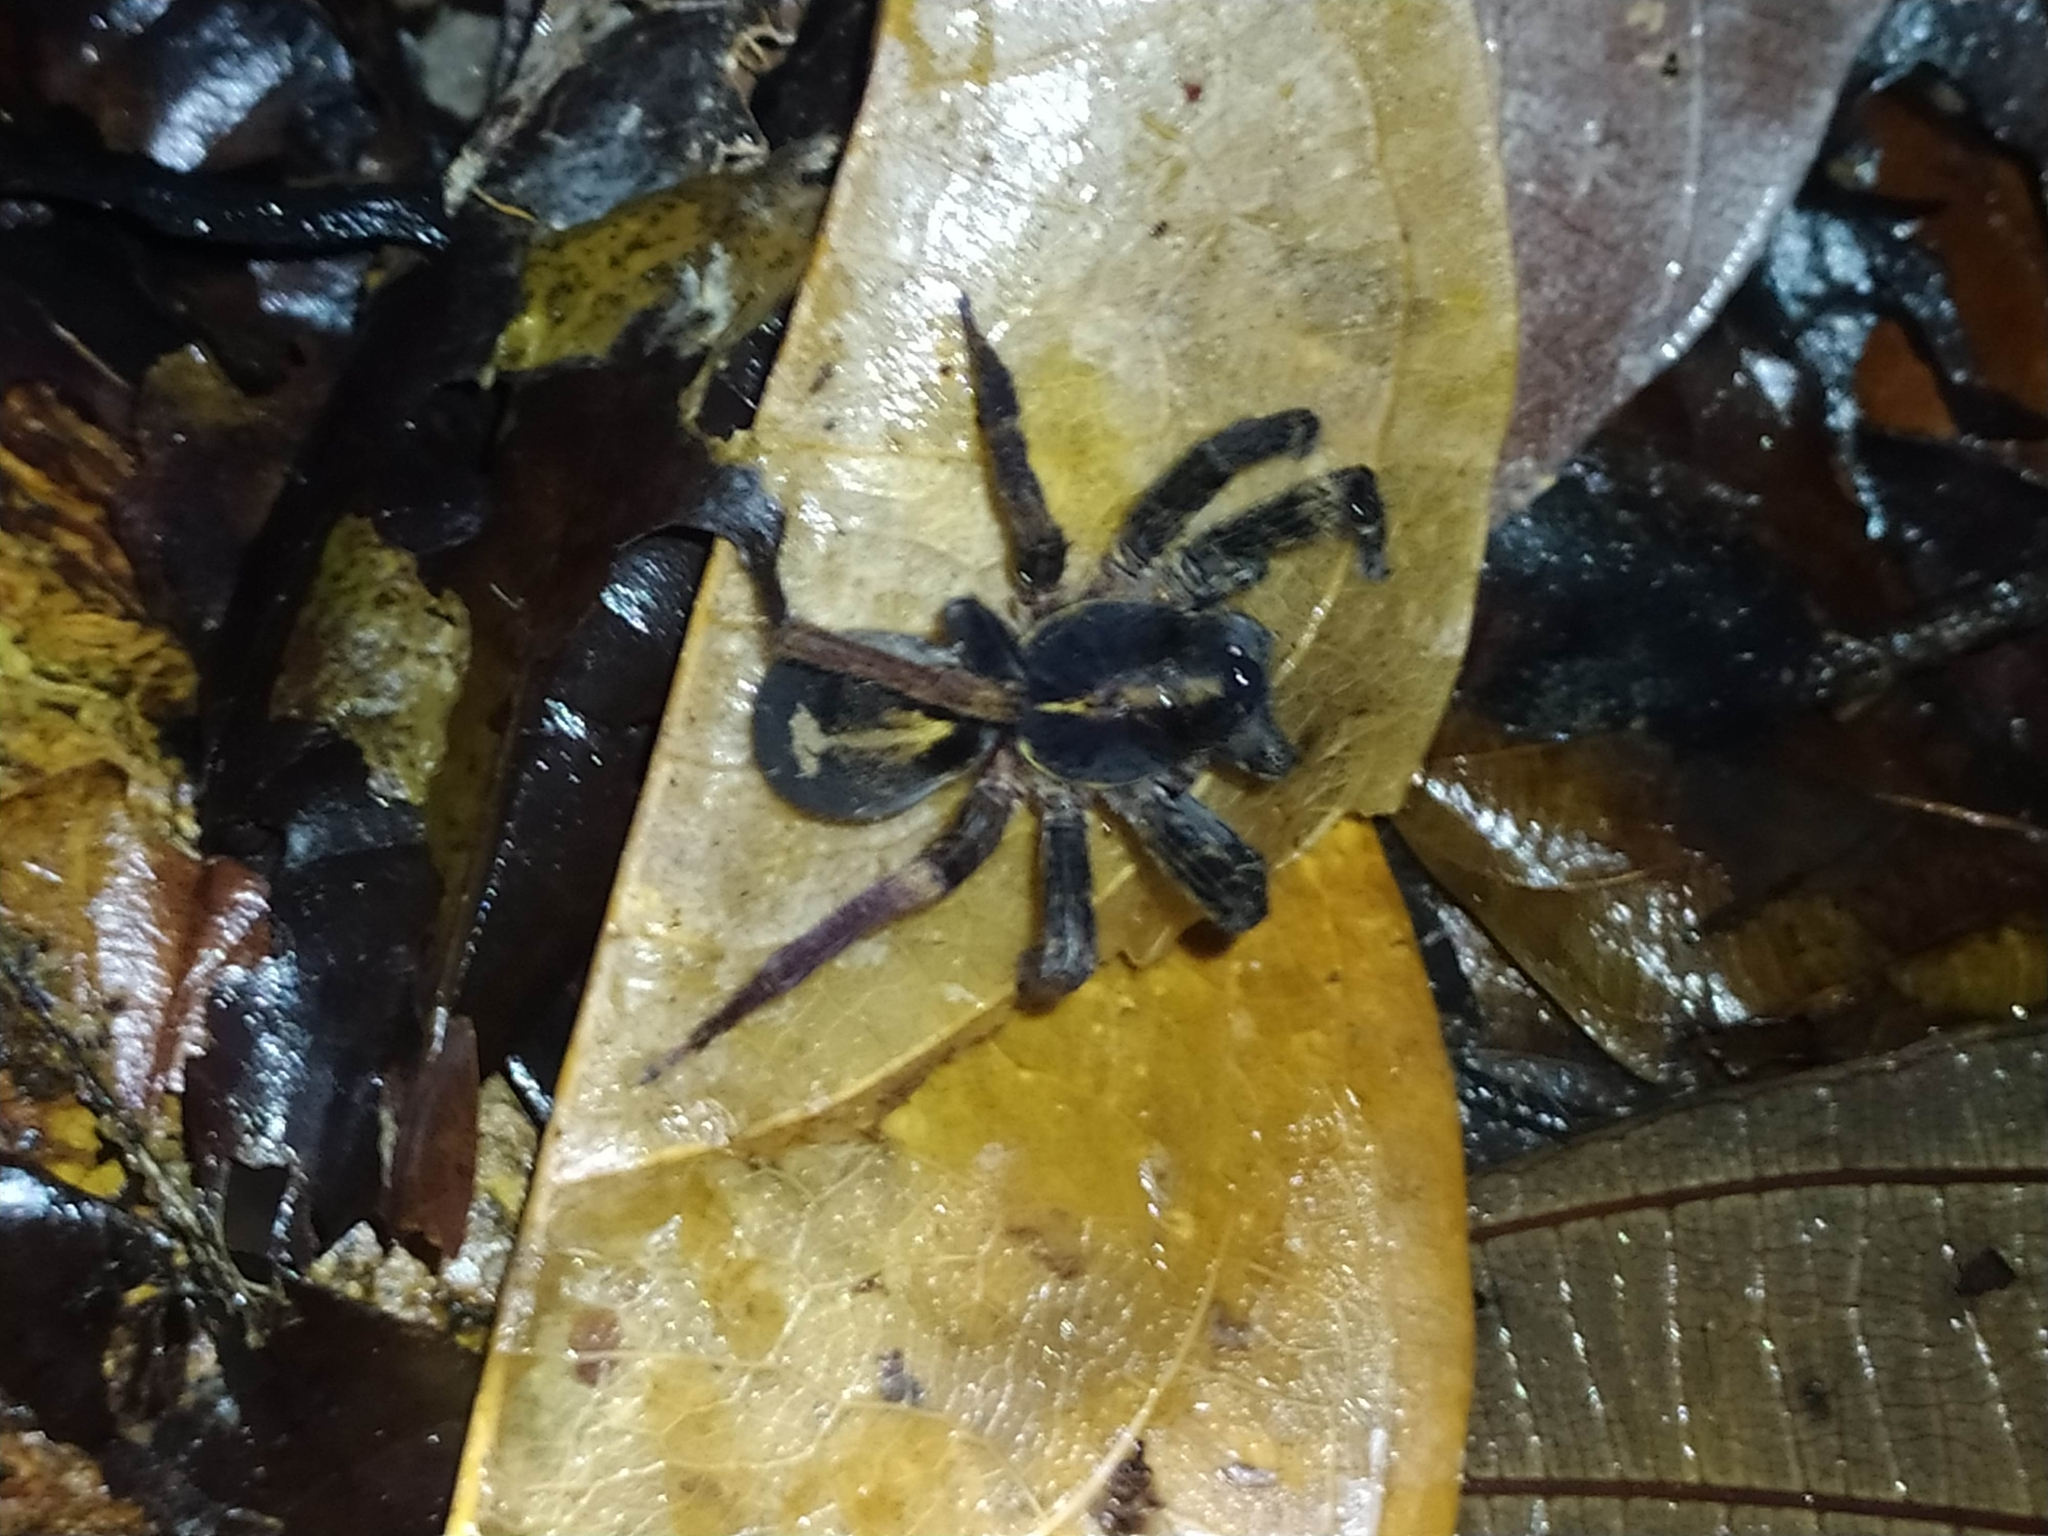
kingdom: Animalia
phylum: Arthropoda
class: Arachnida
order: Araneae
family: Ctenidae
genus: Ctenus
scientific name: Ctenus amphora
